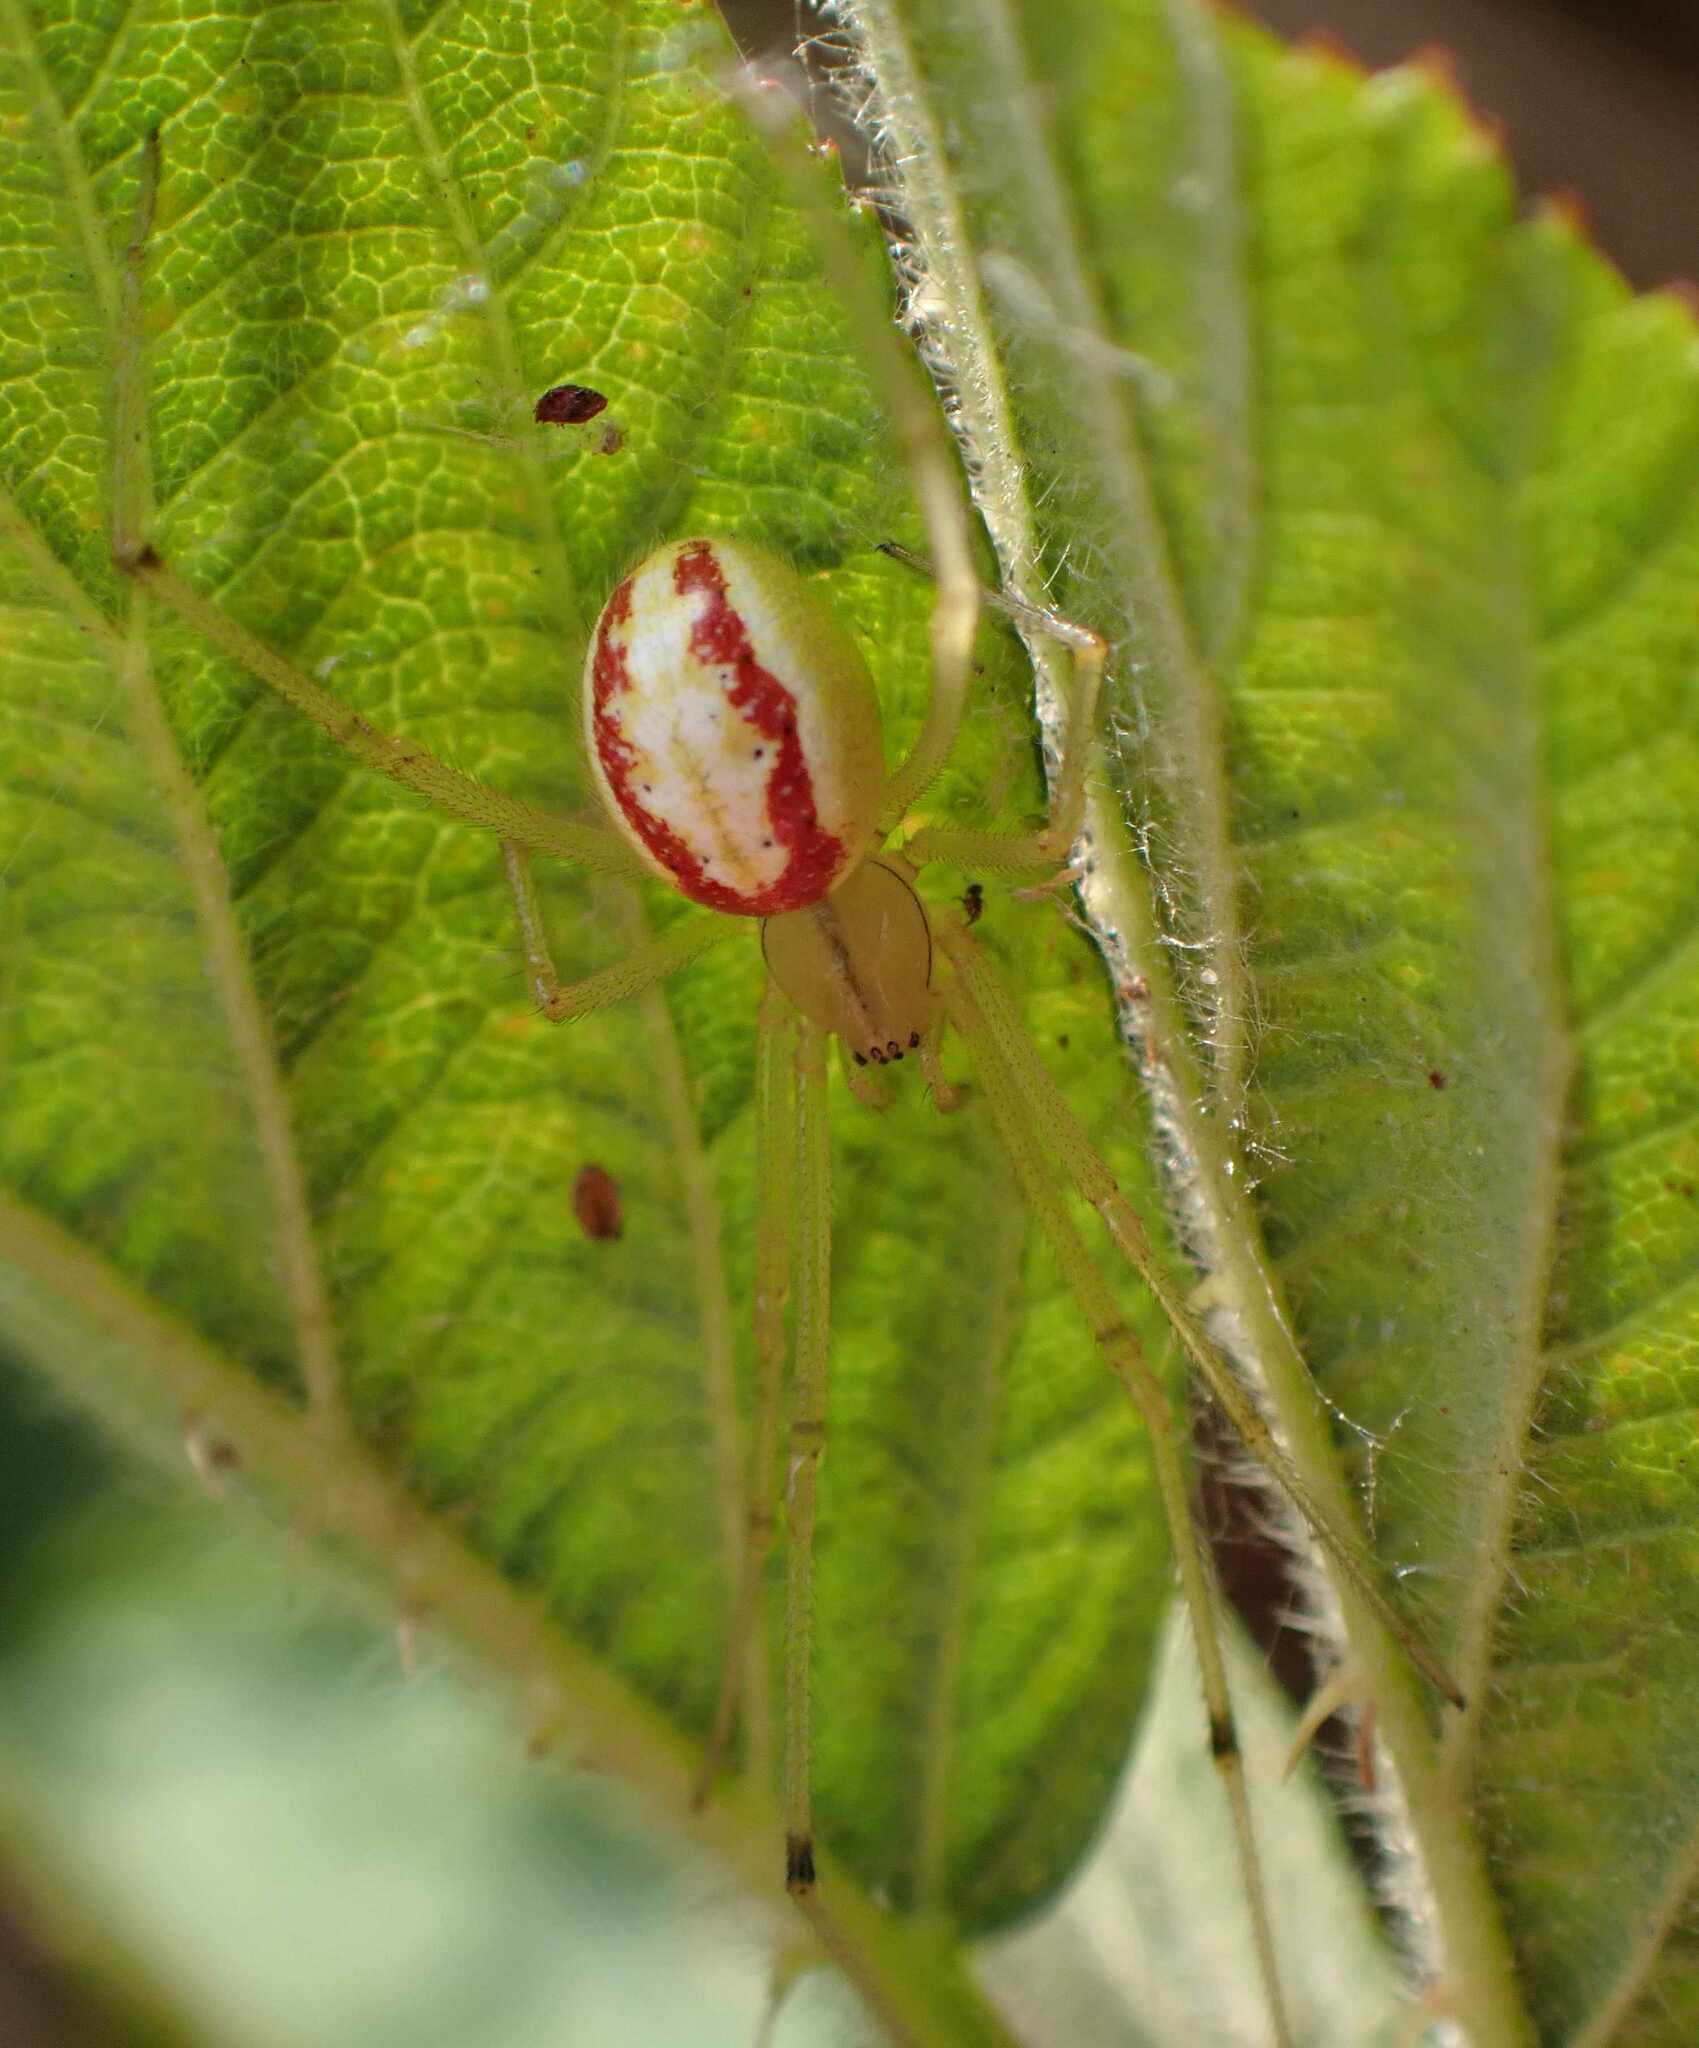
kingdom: Animalia
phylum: Arthropoda
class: Arachnida
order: Araneae
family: Theridiidae
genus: Enoplognatha
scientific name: Enoplognatha
